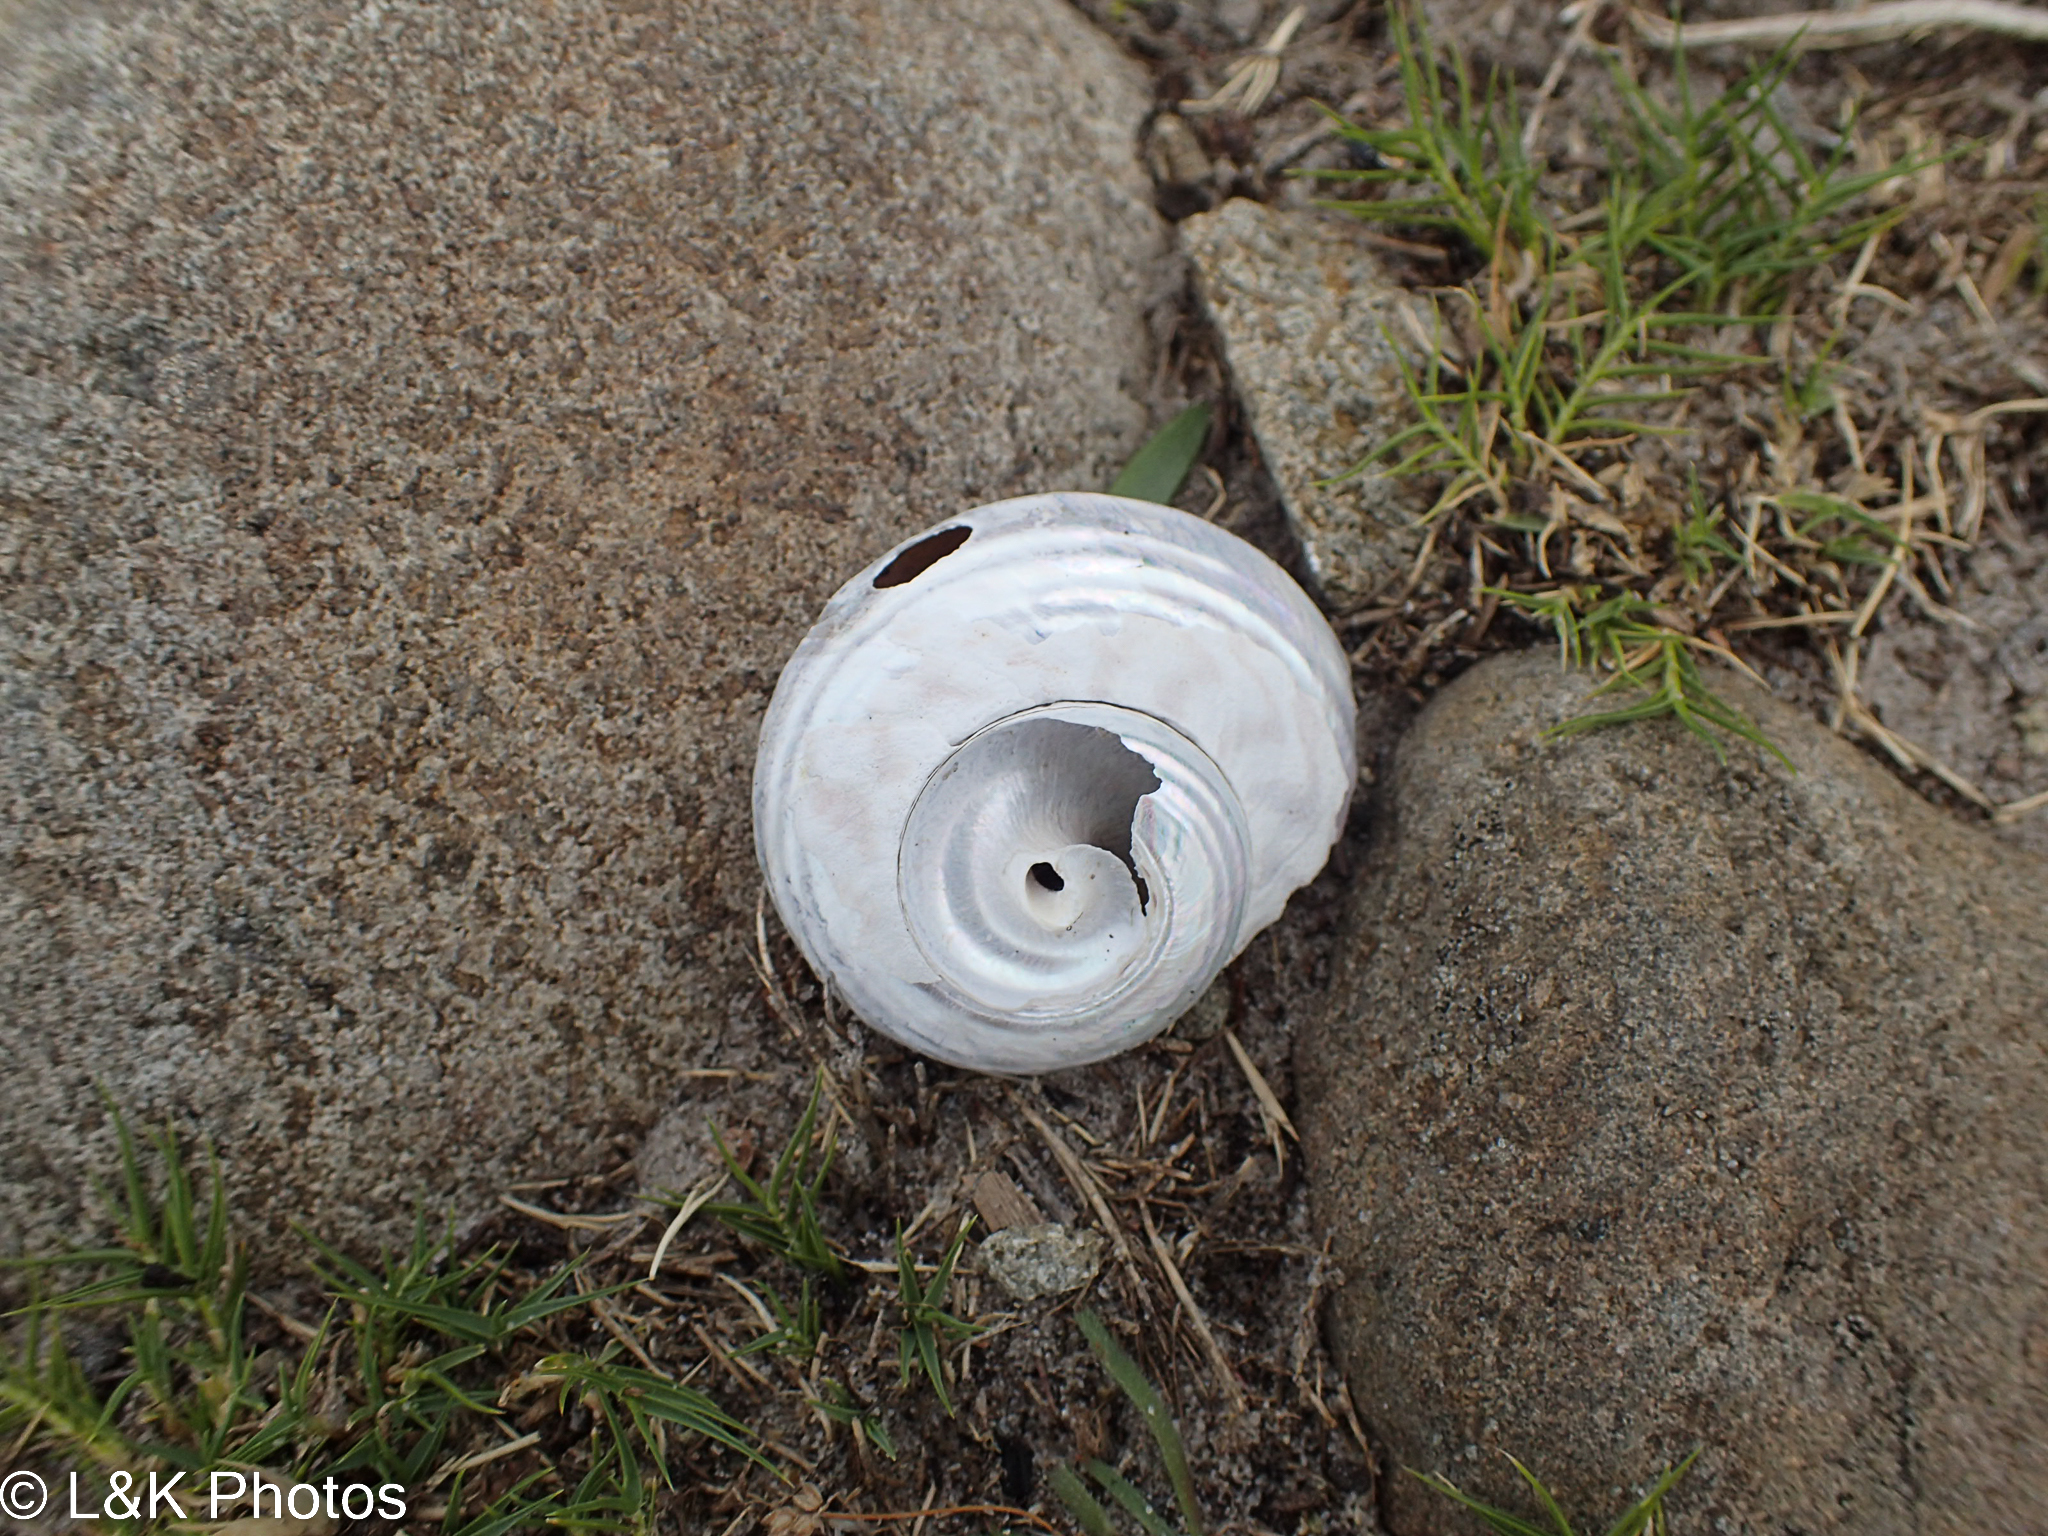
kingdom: Animalia
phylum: Mollusca
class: Gastropoda
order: Trochida
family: Turbinidae
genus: Lunella
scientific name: Lunella undulata
